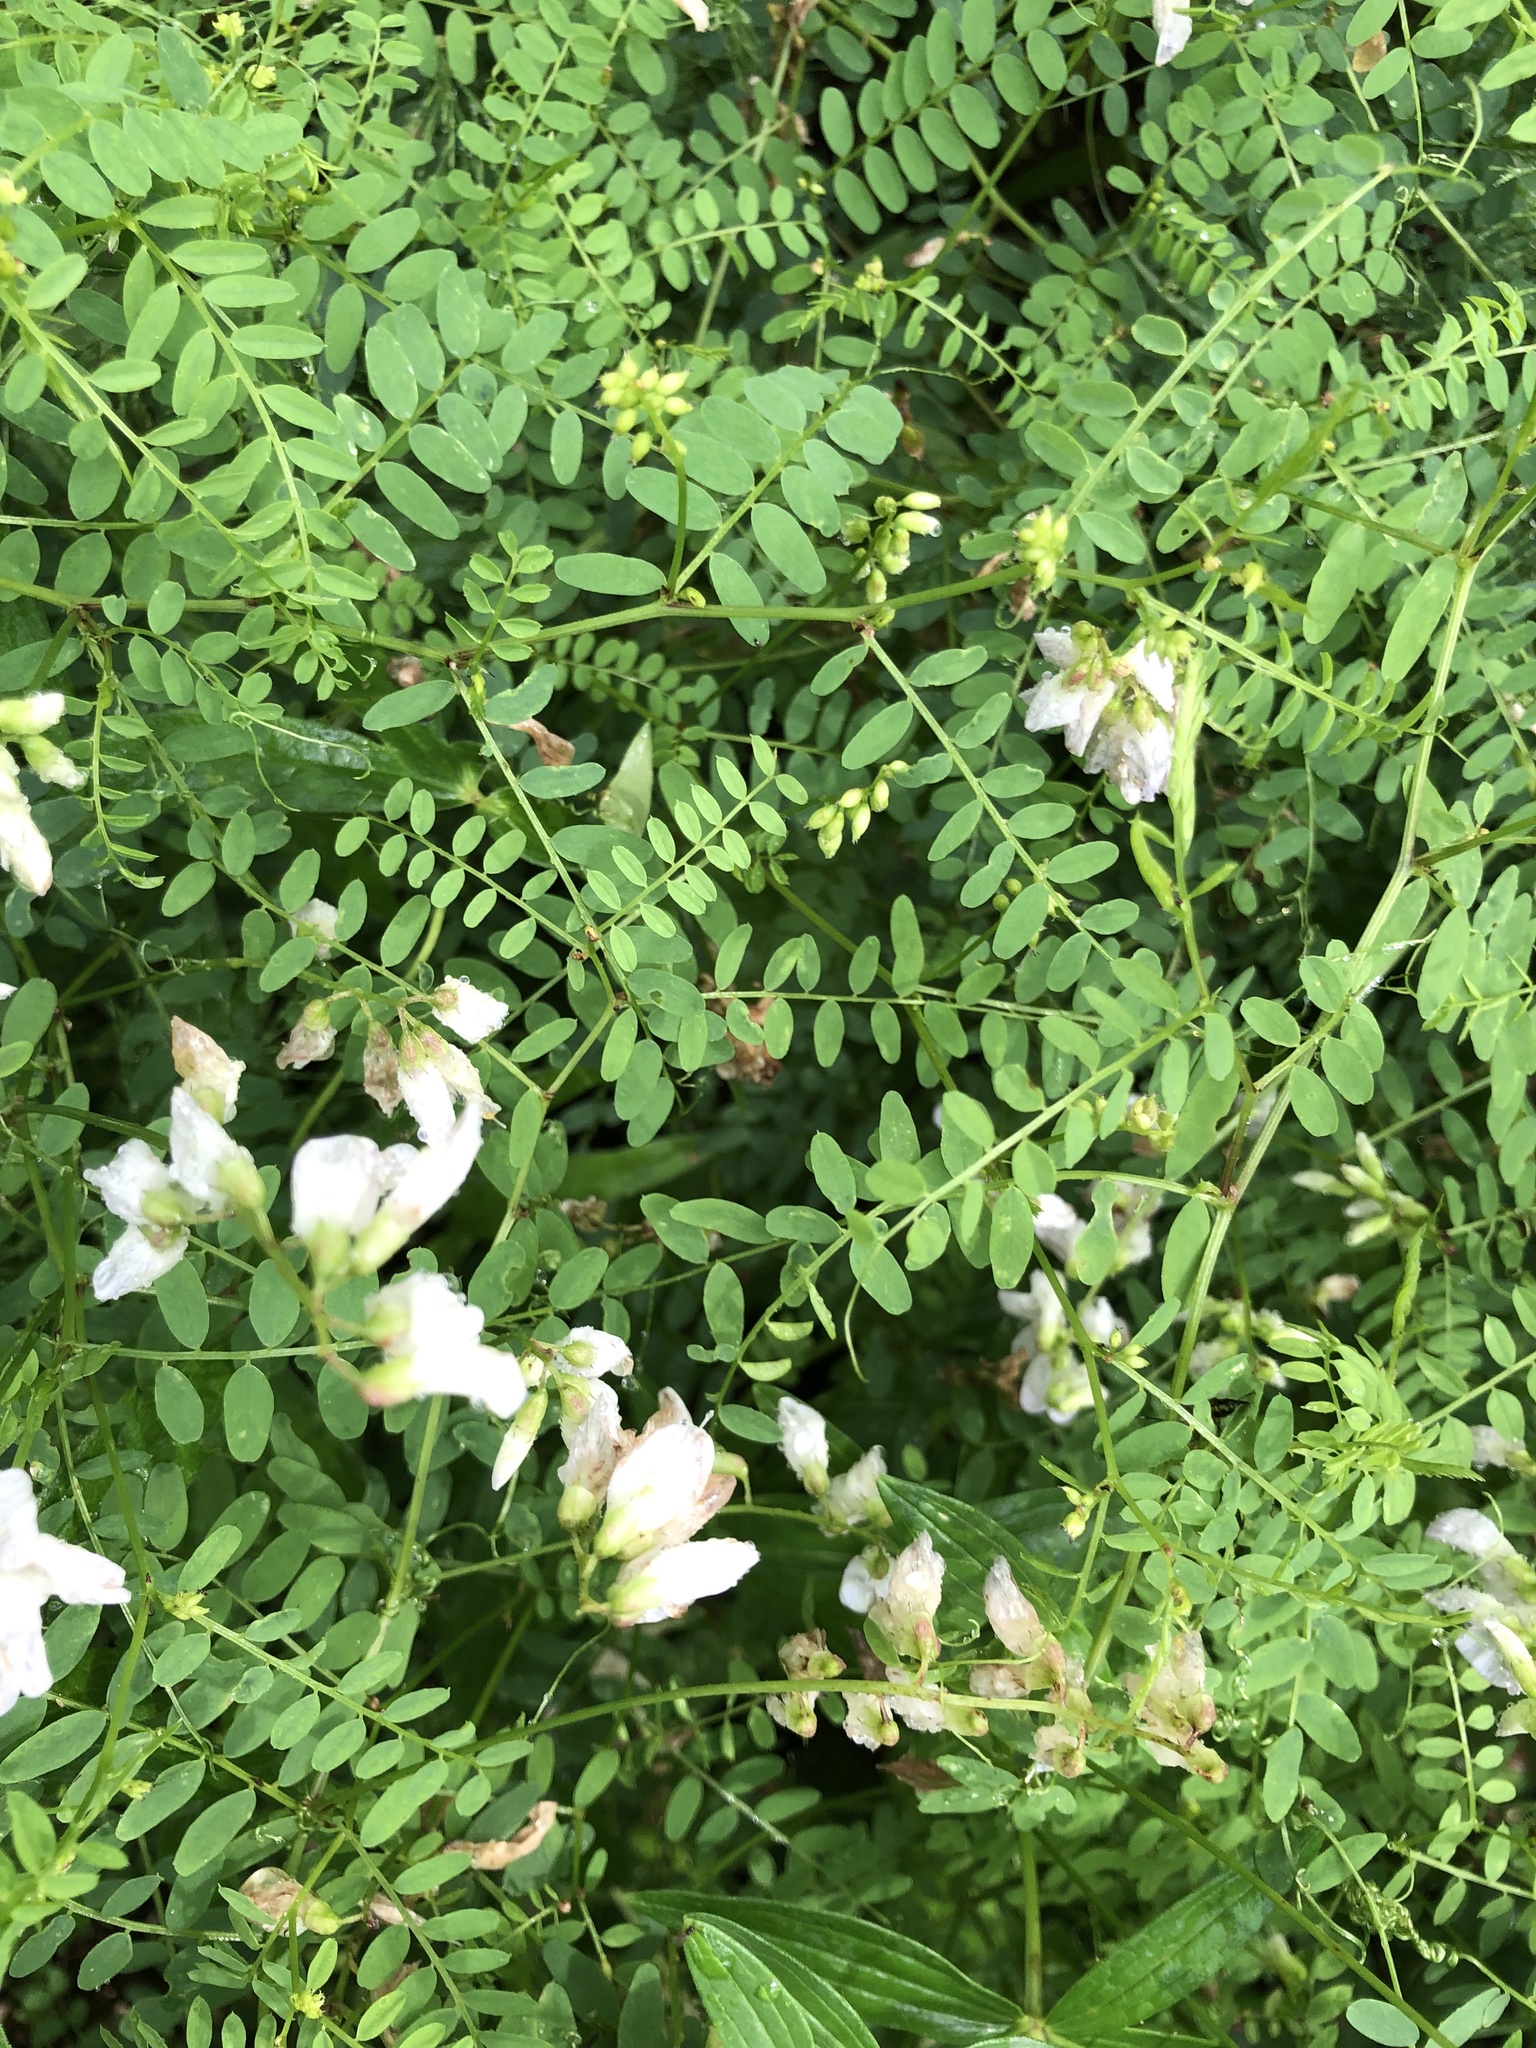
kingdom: Plantae
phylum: Tracheophyta
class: Magnoliopsida
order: Fabales
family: Fabaceae
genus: Vicia
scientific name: Vicia sylvatica
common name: Wood vetch
